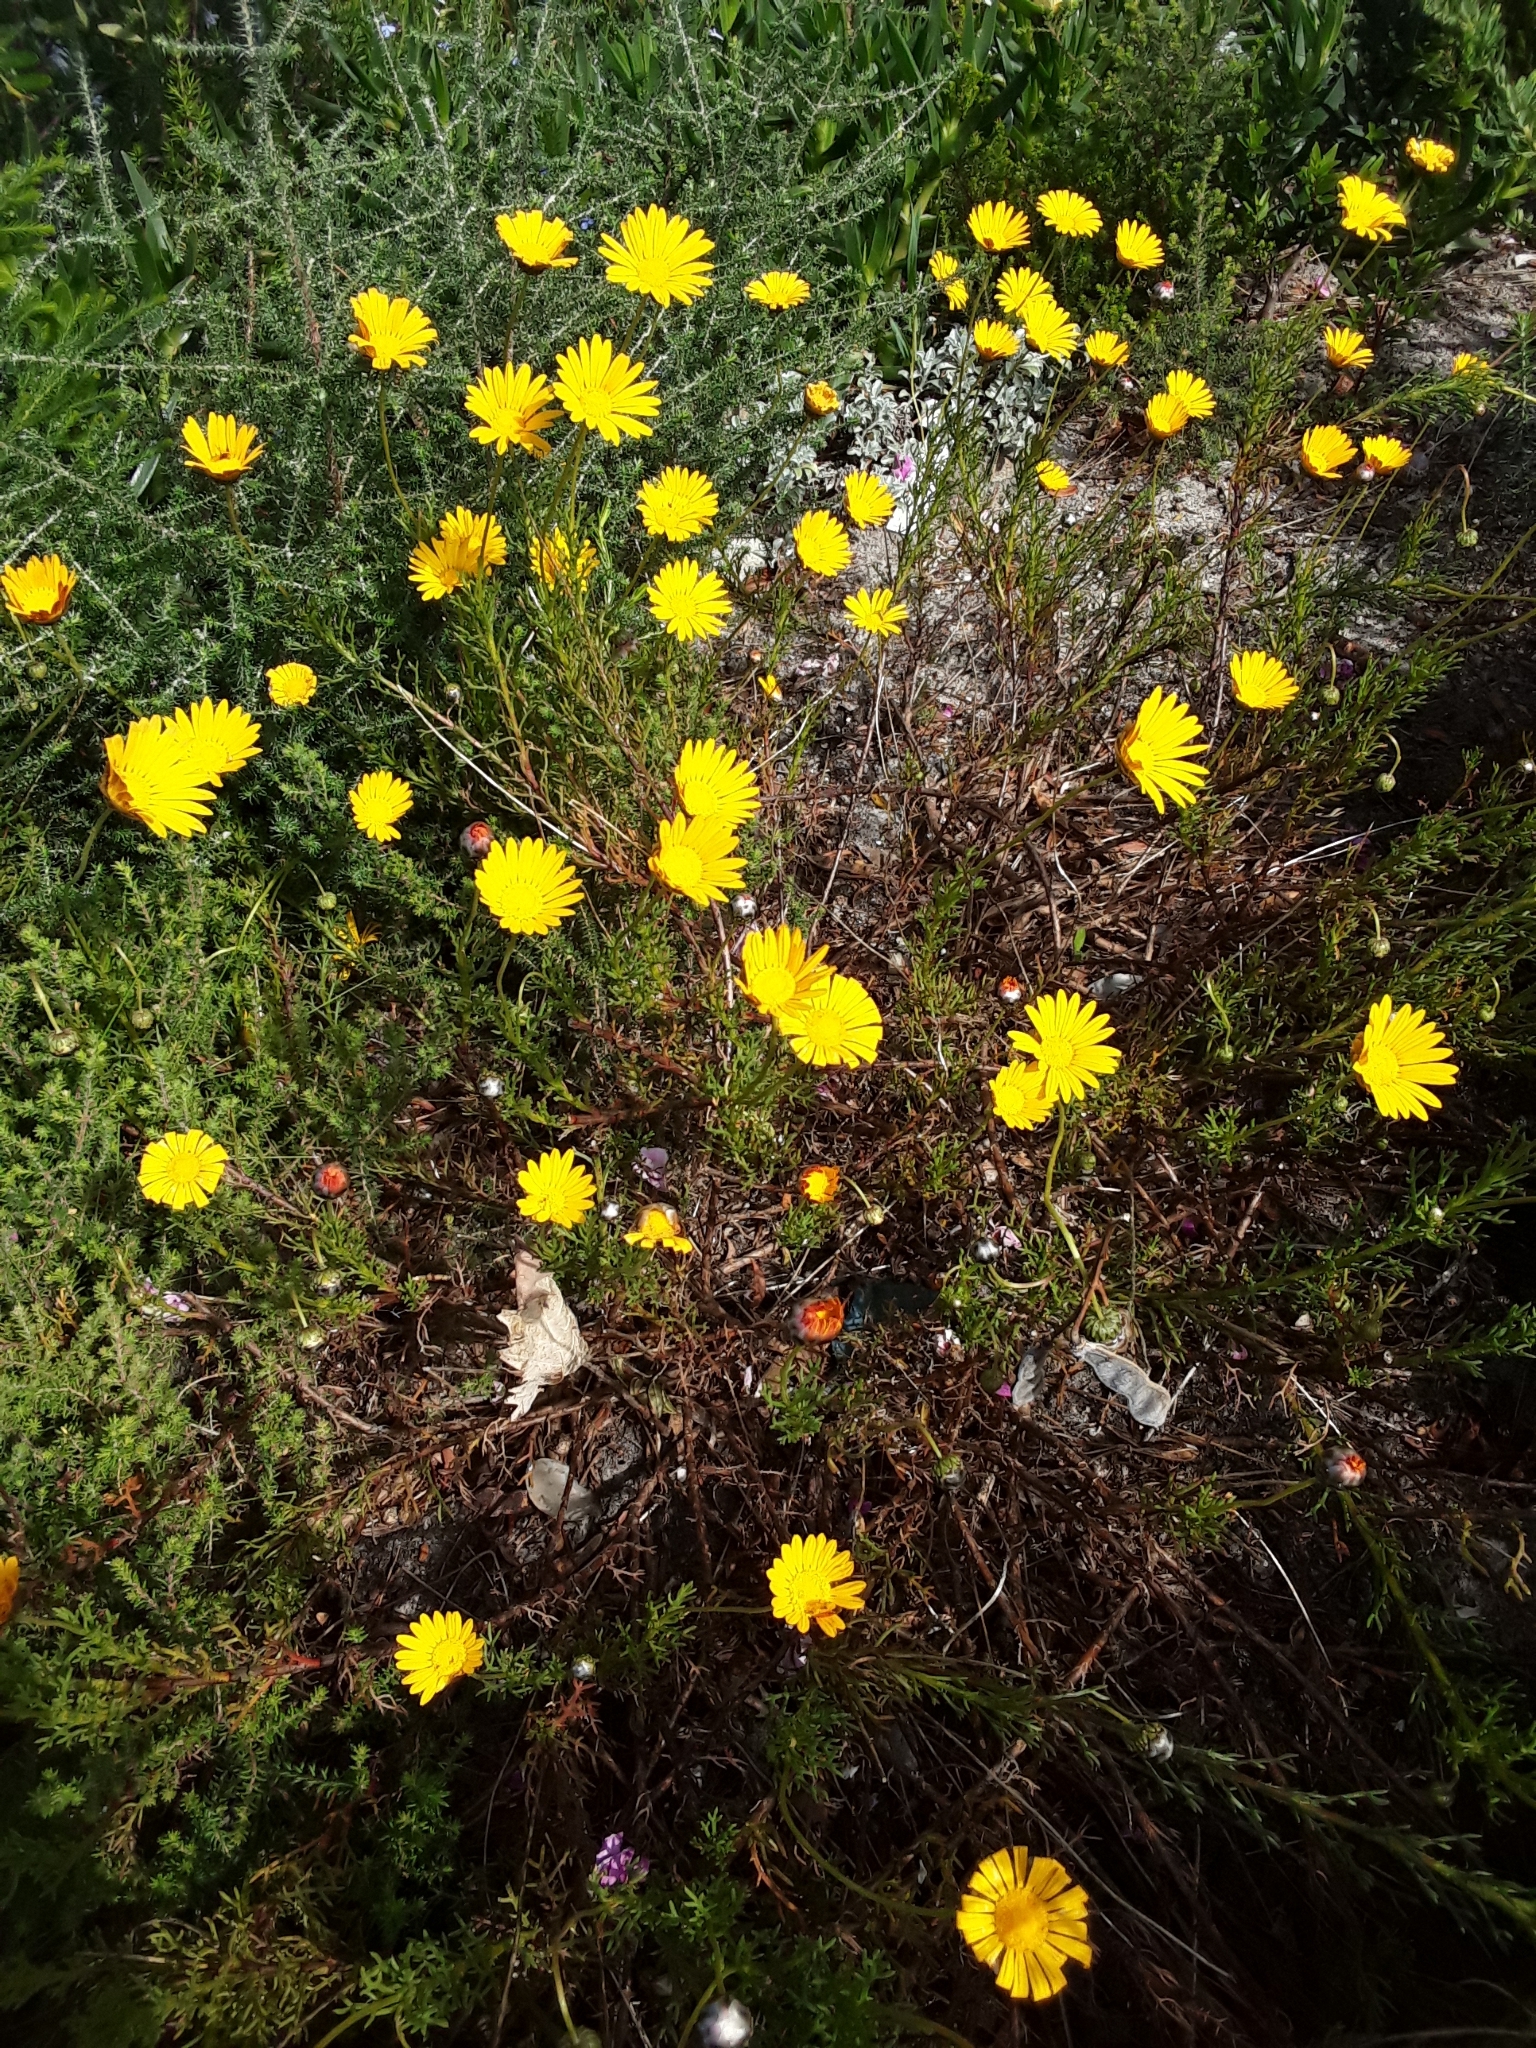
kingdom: Plantae
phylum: Tracheophyta
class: Magnoliopsida
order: Asterales
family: Asteraceae
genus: Ursinia
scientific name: Ursinia paleacea
